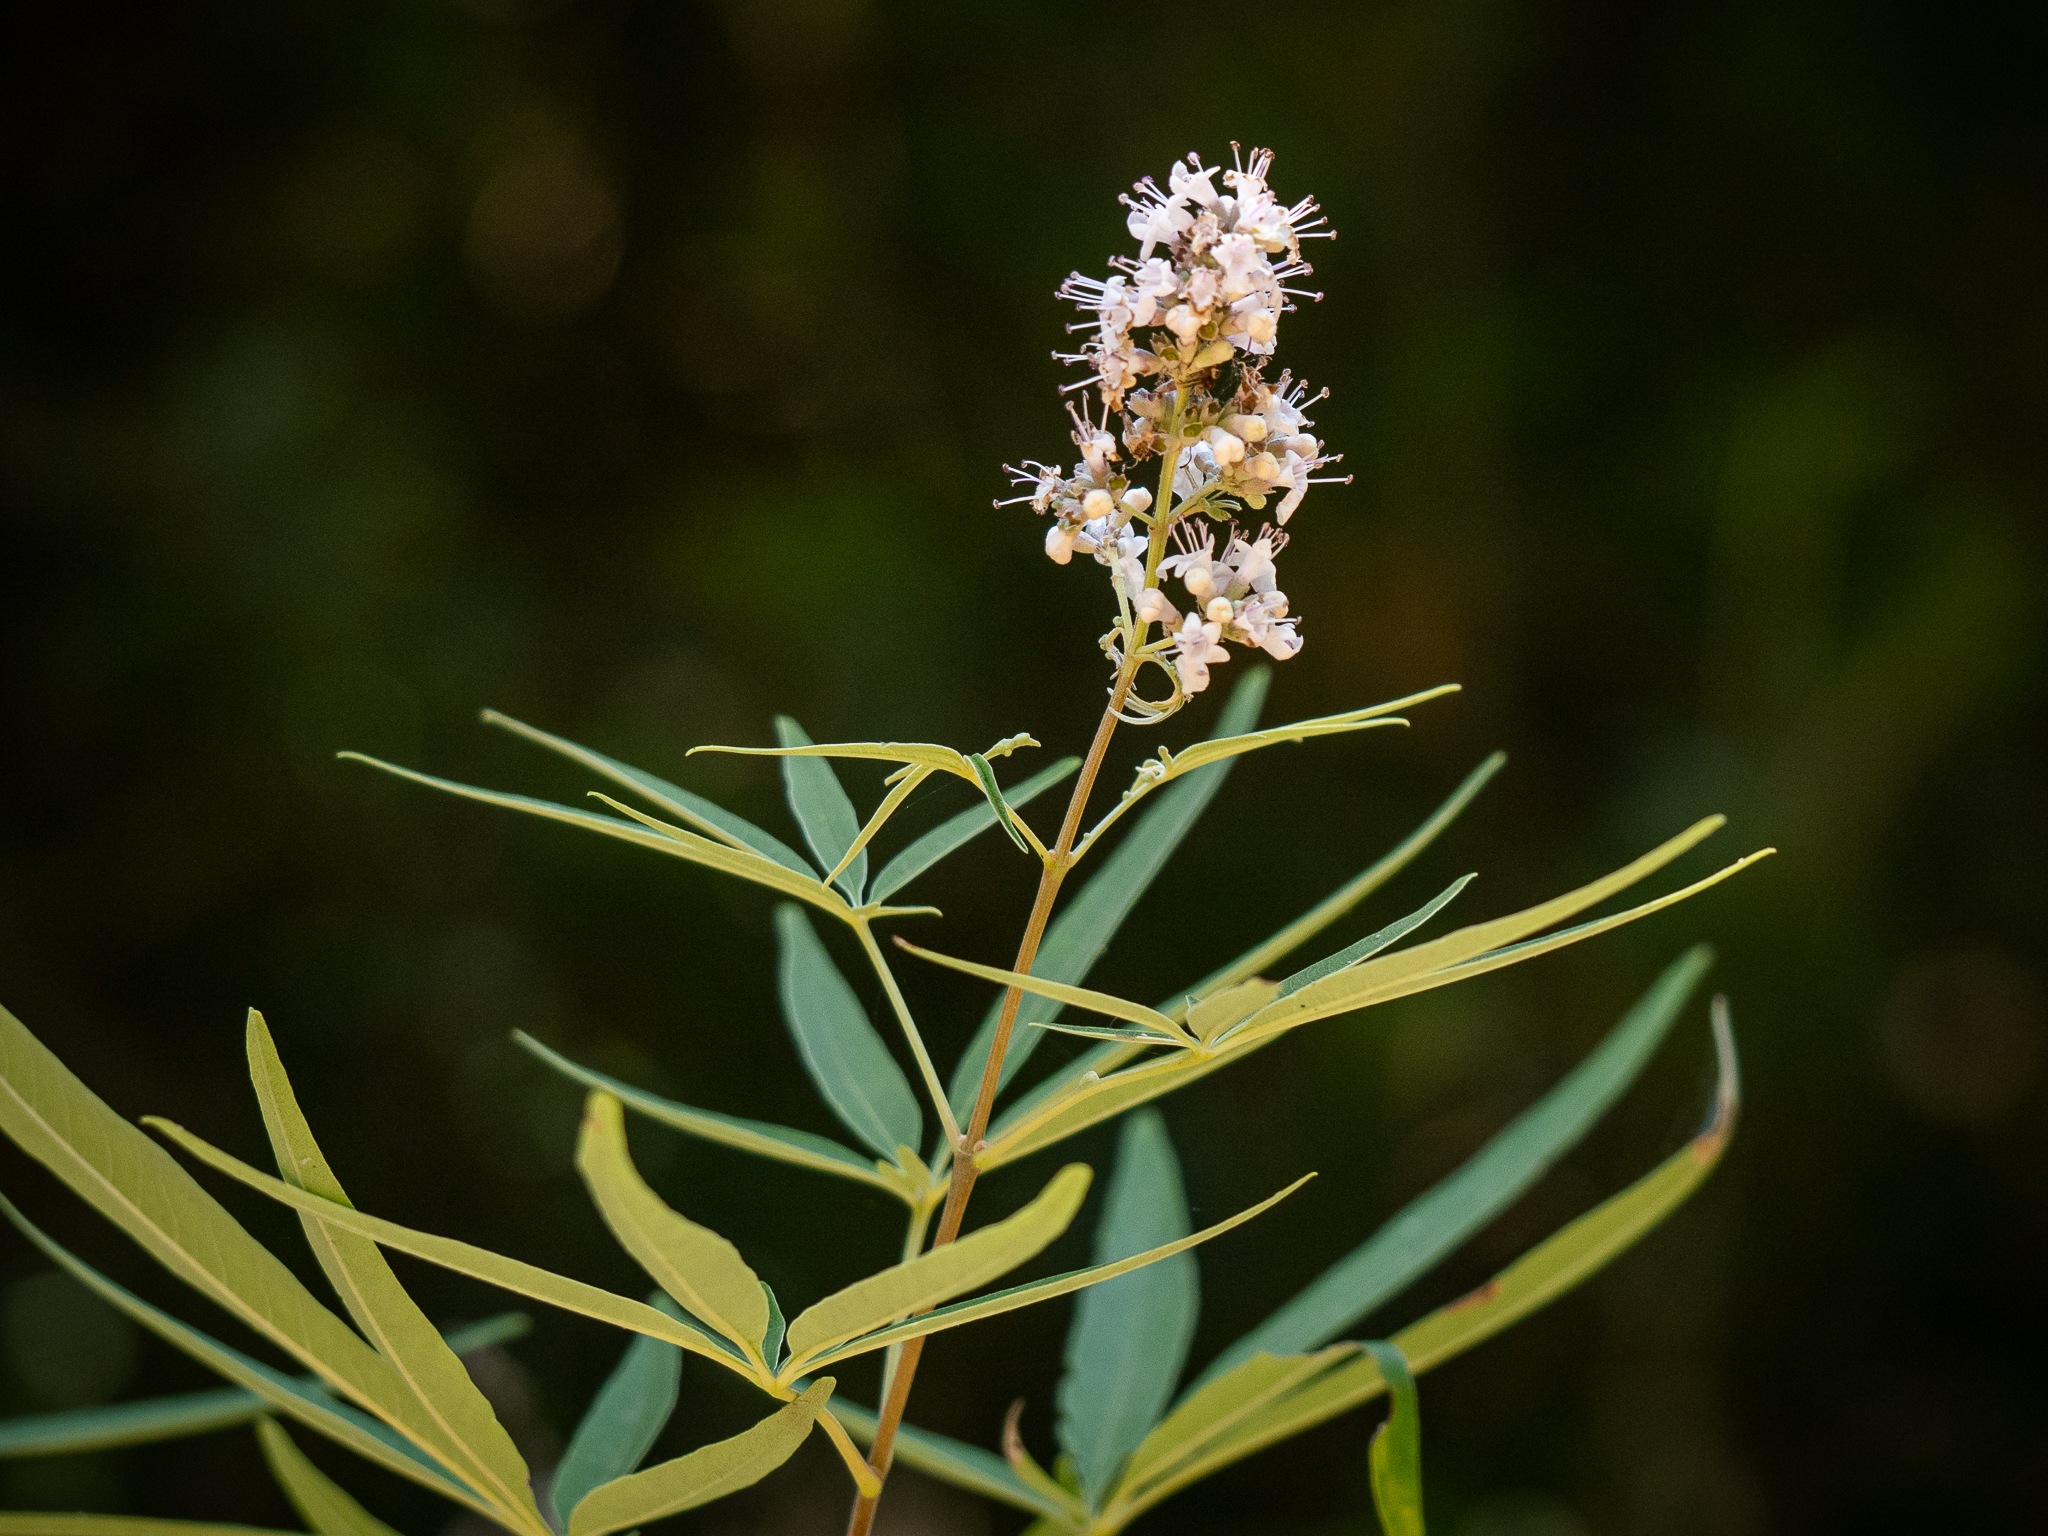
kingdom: Plantae
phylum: Tracheophyta
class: Magnoliopsida
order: Lamiales
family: Lamiaceae
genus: Vitex
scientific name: Vitex agnus-castus
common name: Chasteberry
